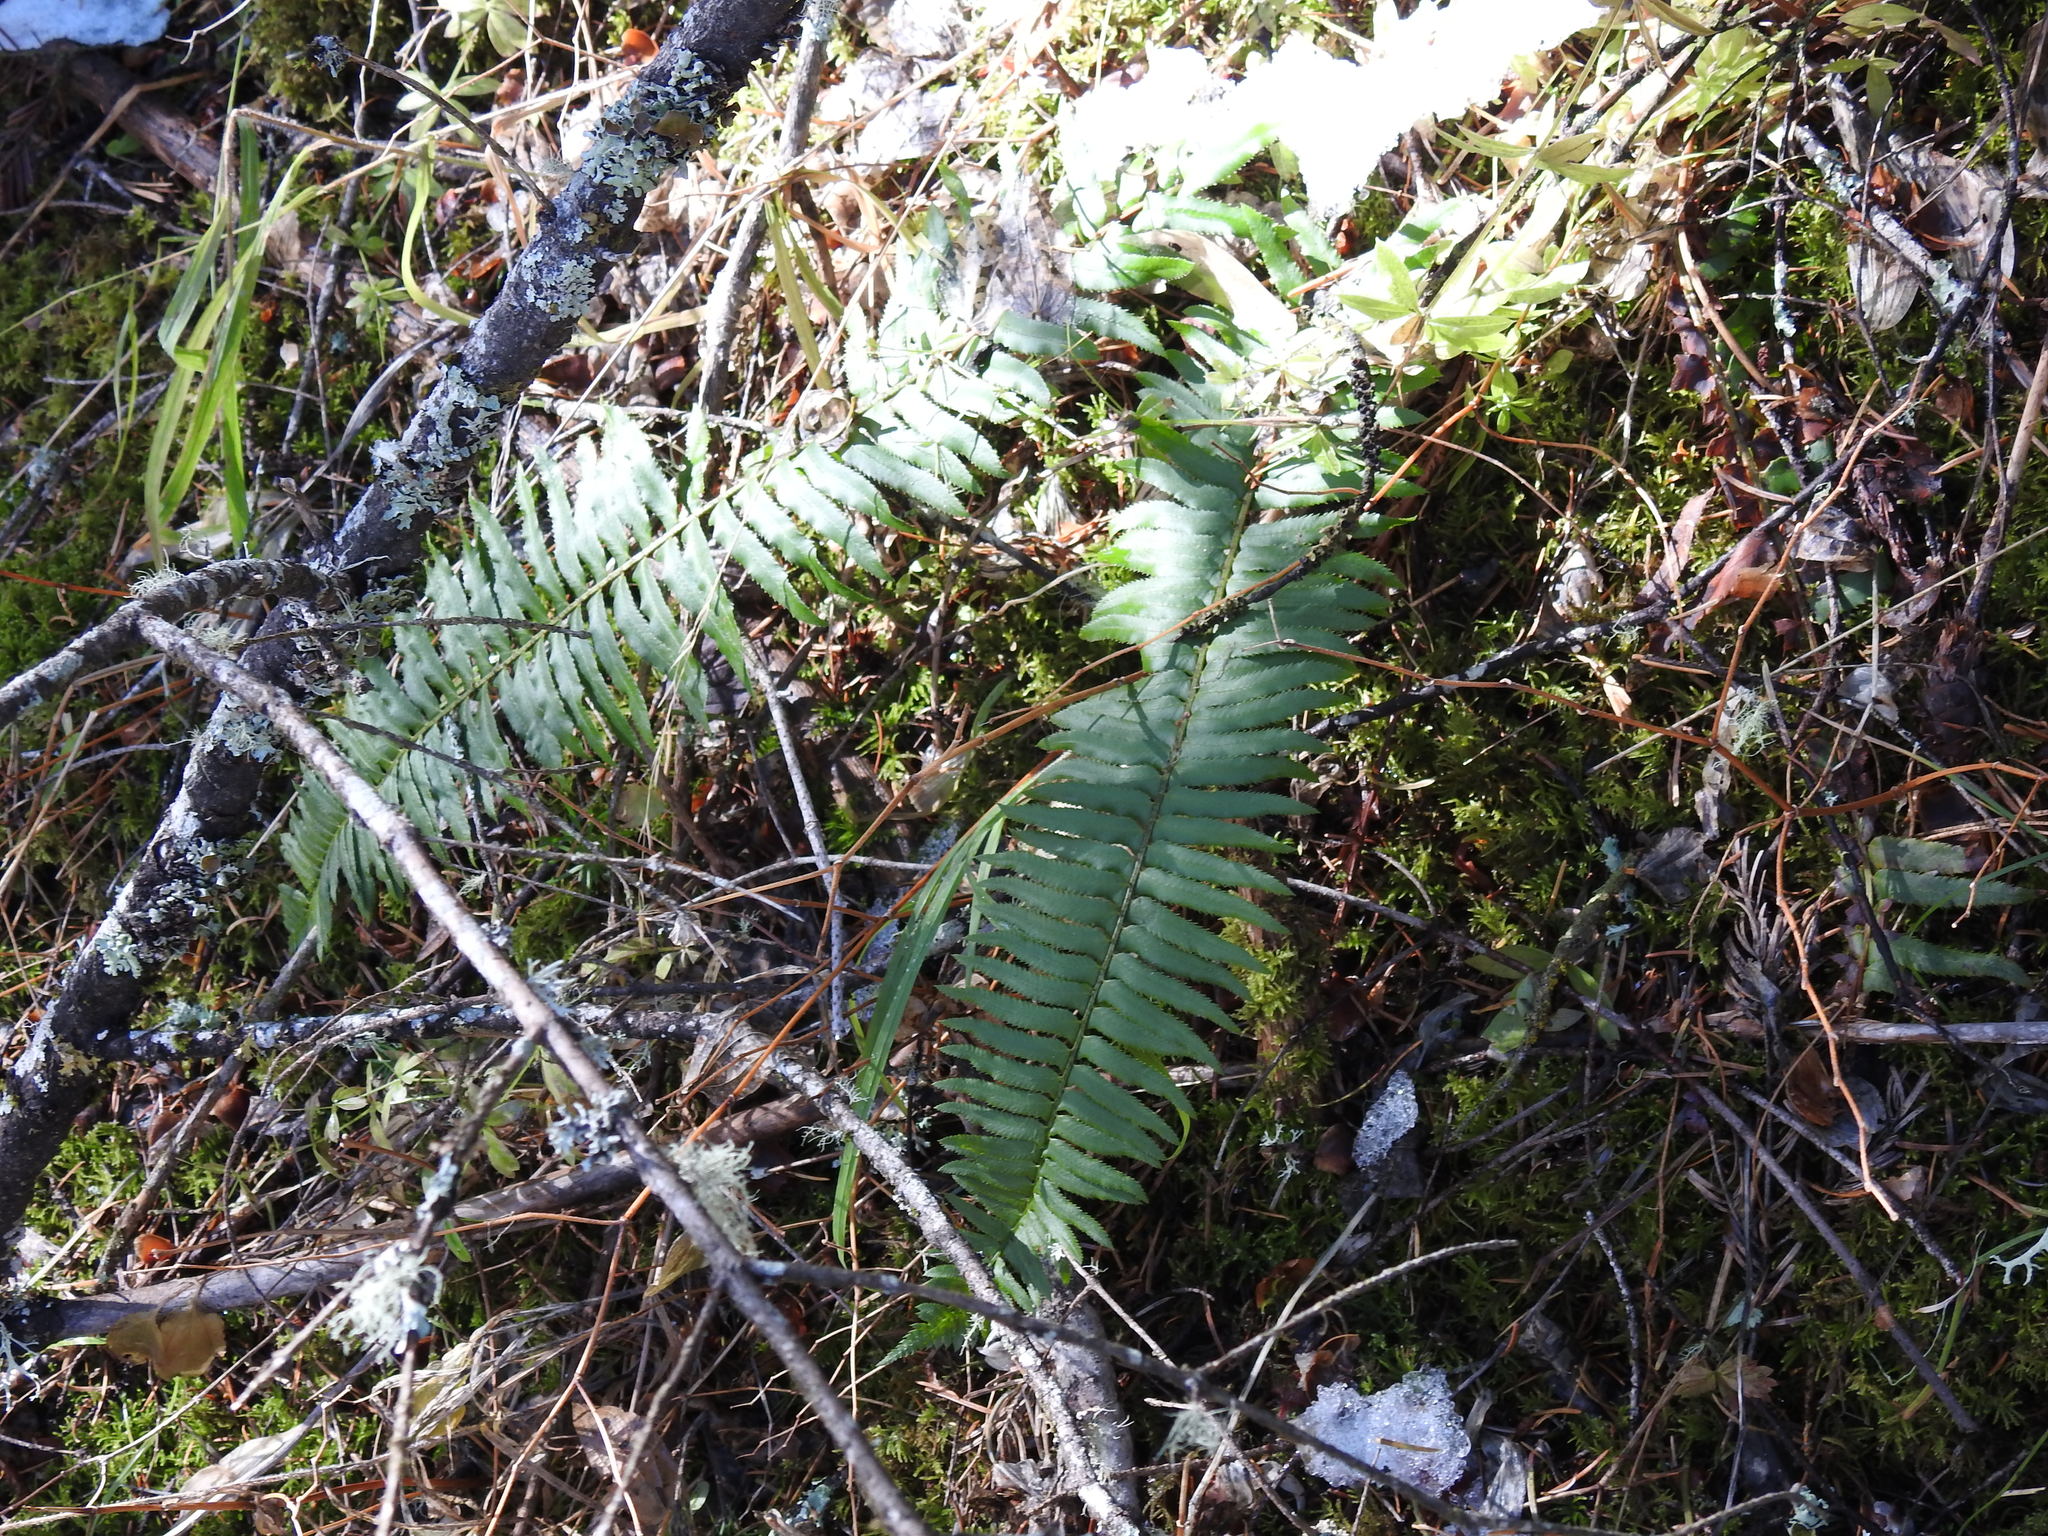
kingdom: Plantae
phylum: Tracheophyta
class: Polypodiopsida
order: Polypodiales
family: Dryopteridaceae
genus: Polystichum
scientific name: Polystichum munitum
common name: Western sword-fern
